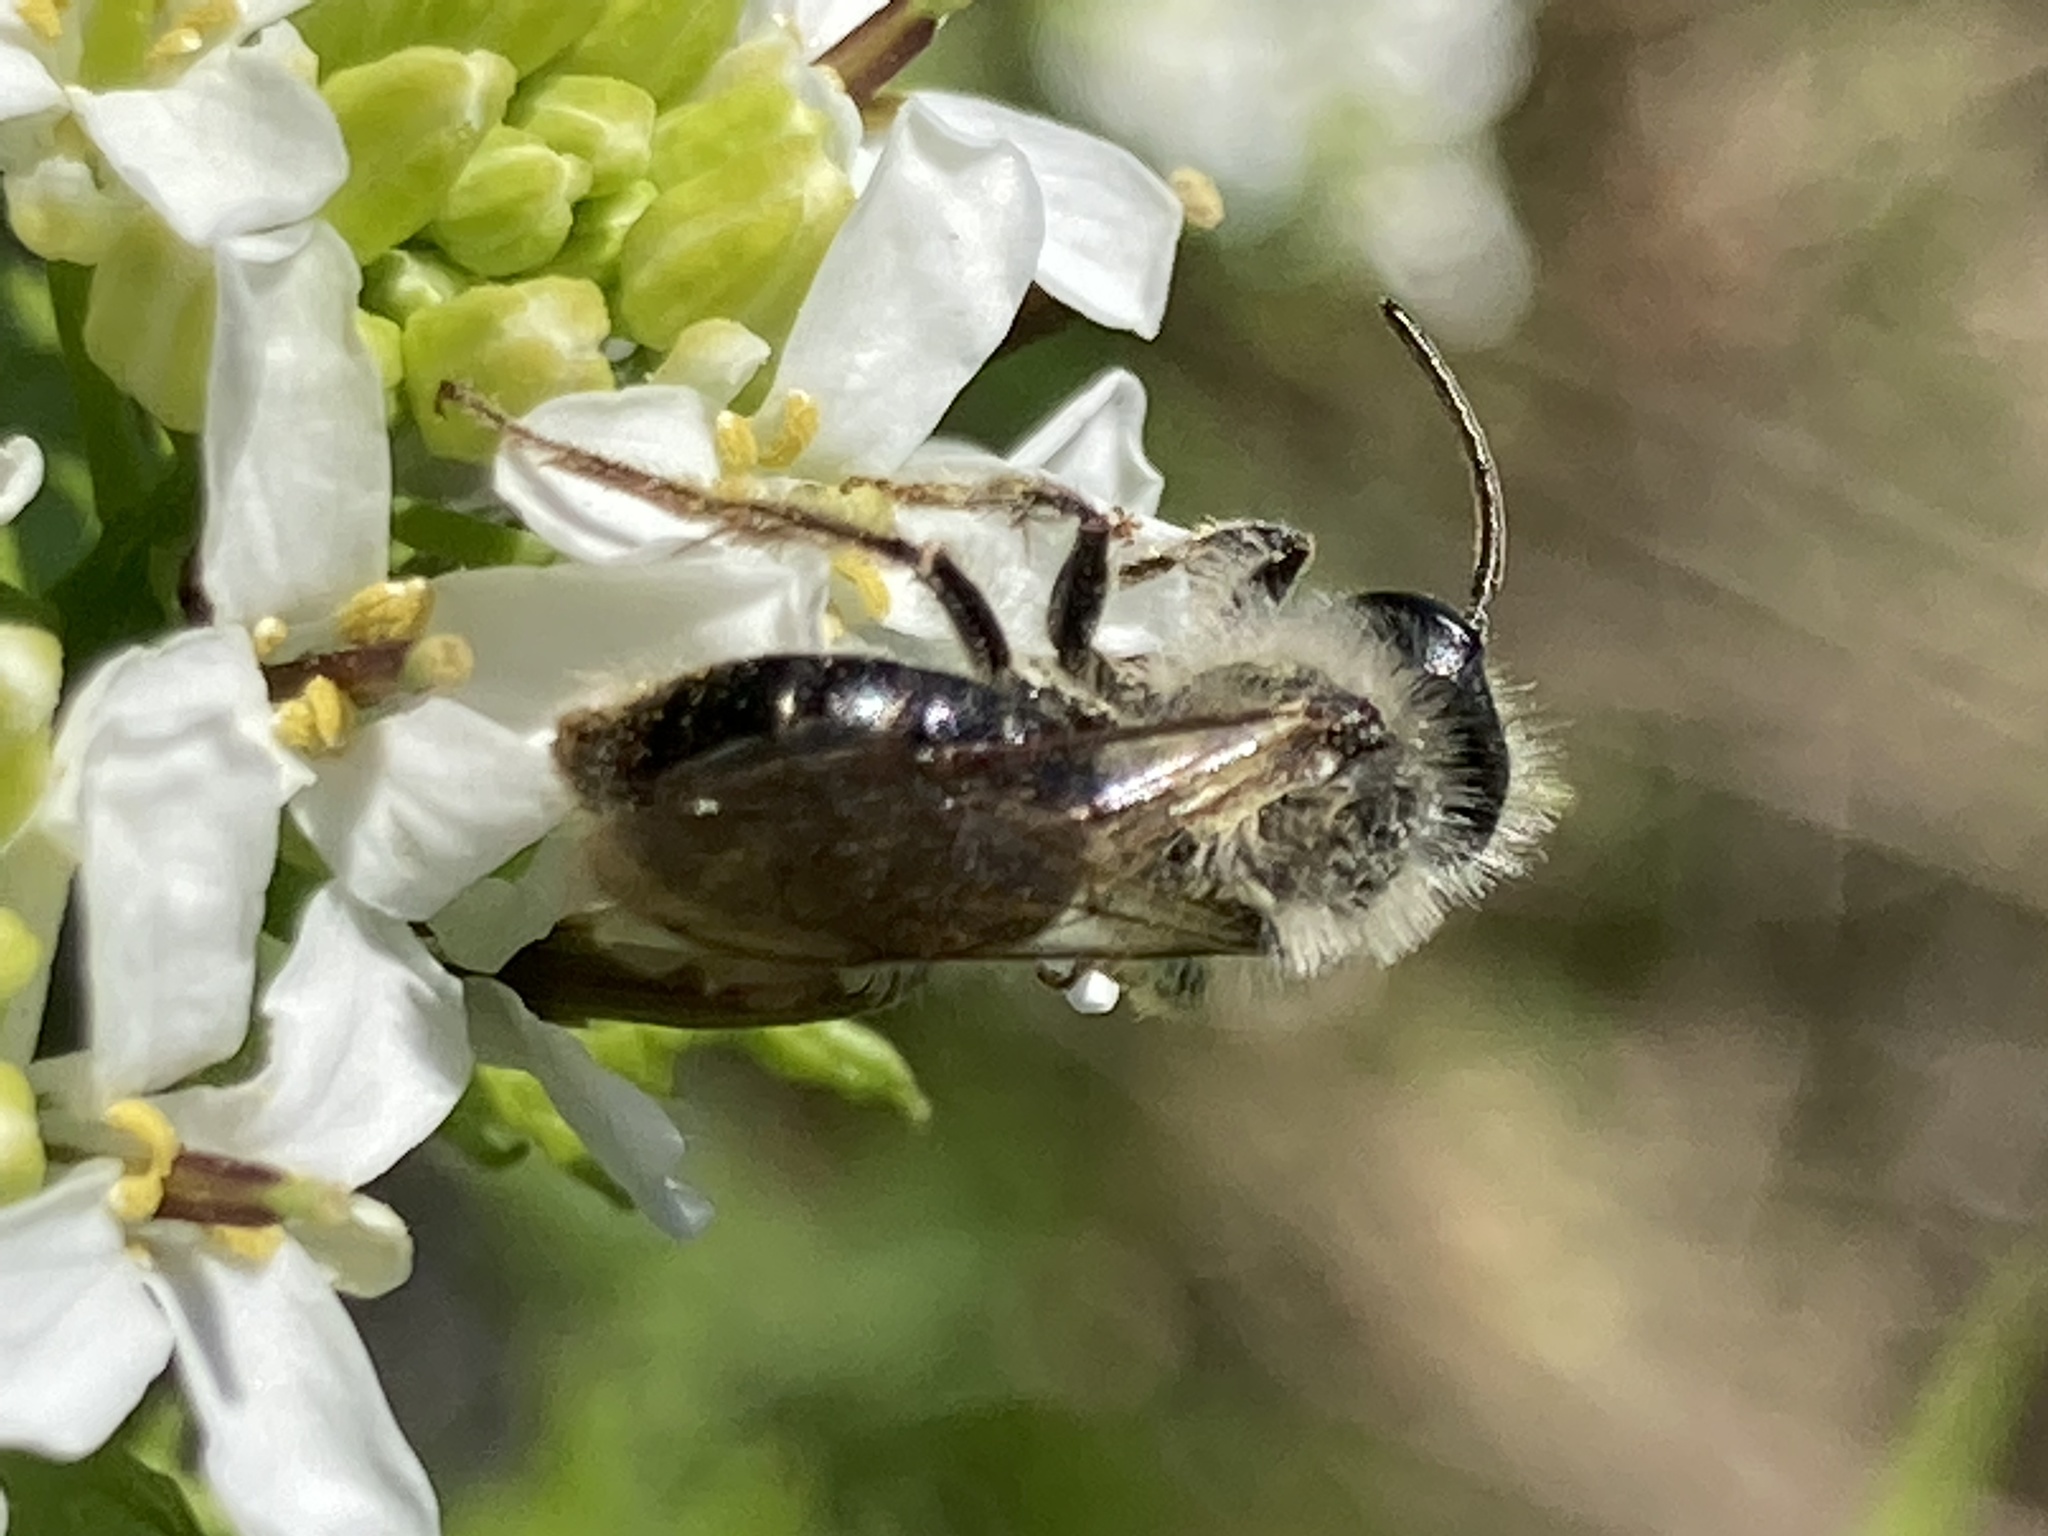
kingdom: Animalia
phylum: Arthropoda
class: Insecta
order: Hymenoptera
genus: Melandrena
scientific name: Melandrena
